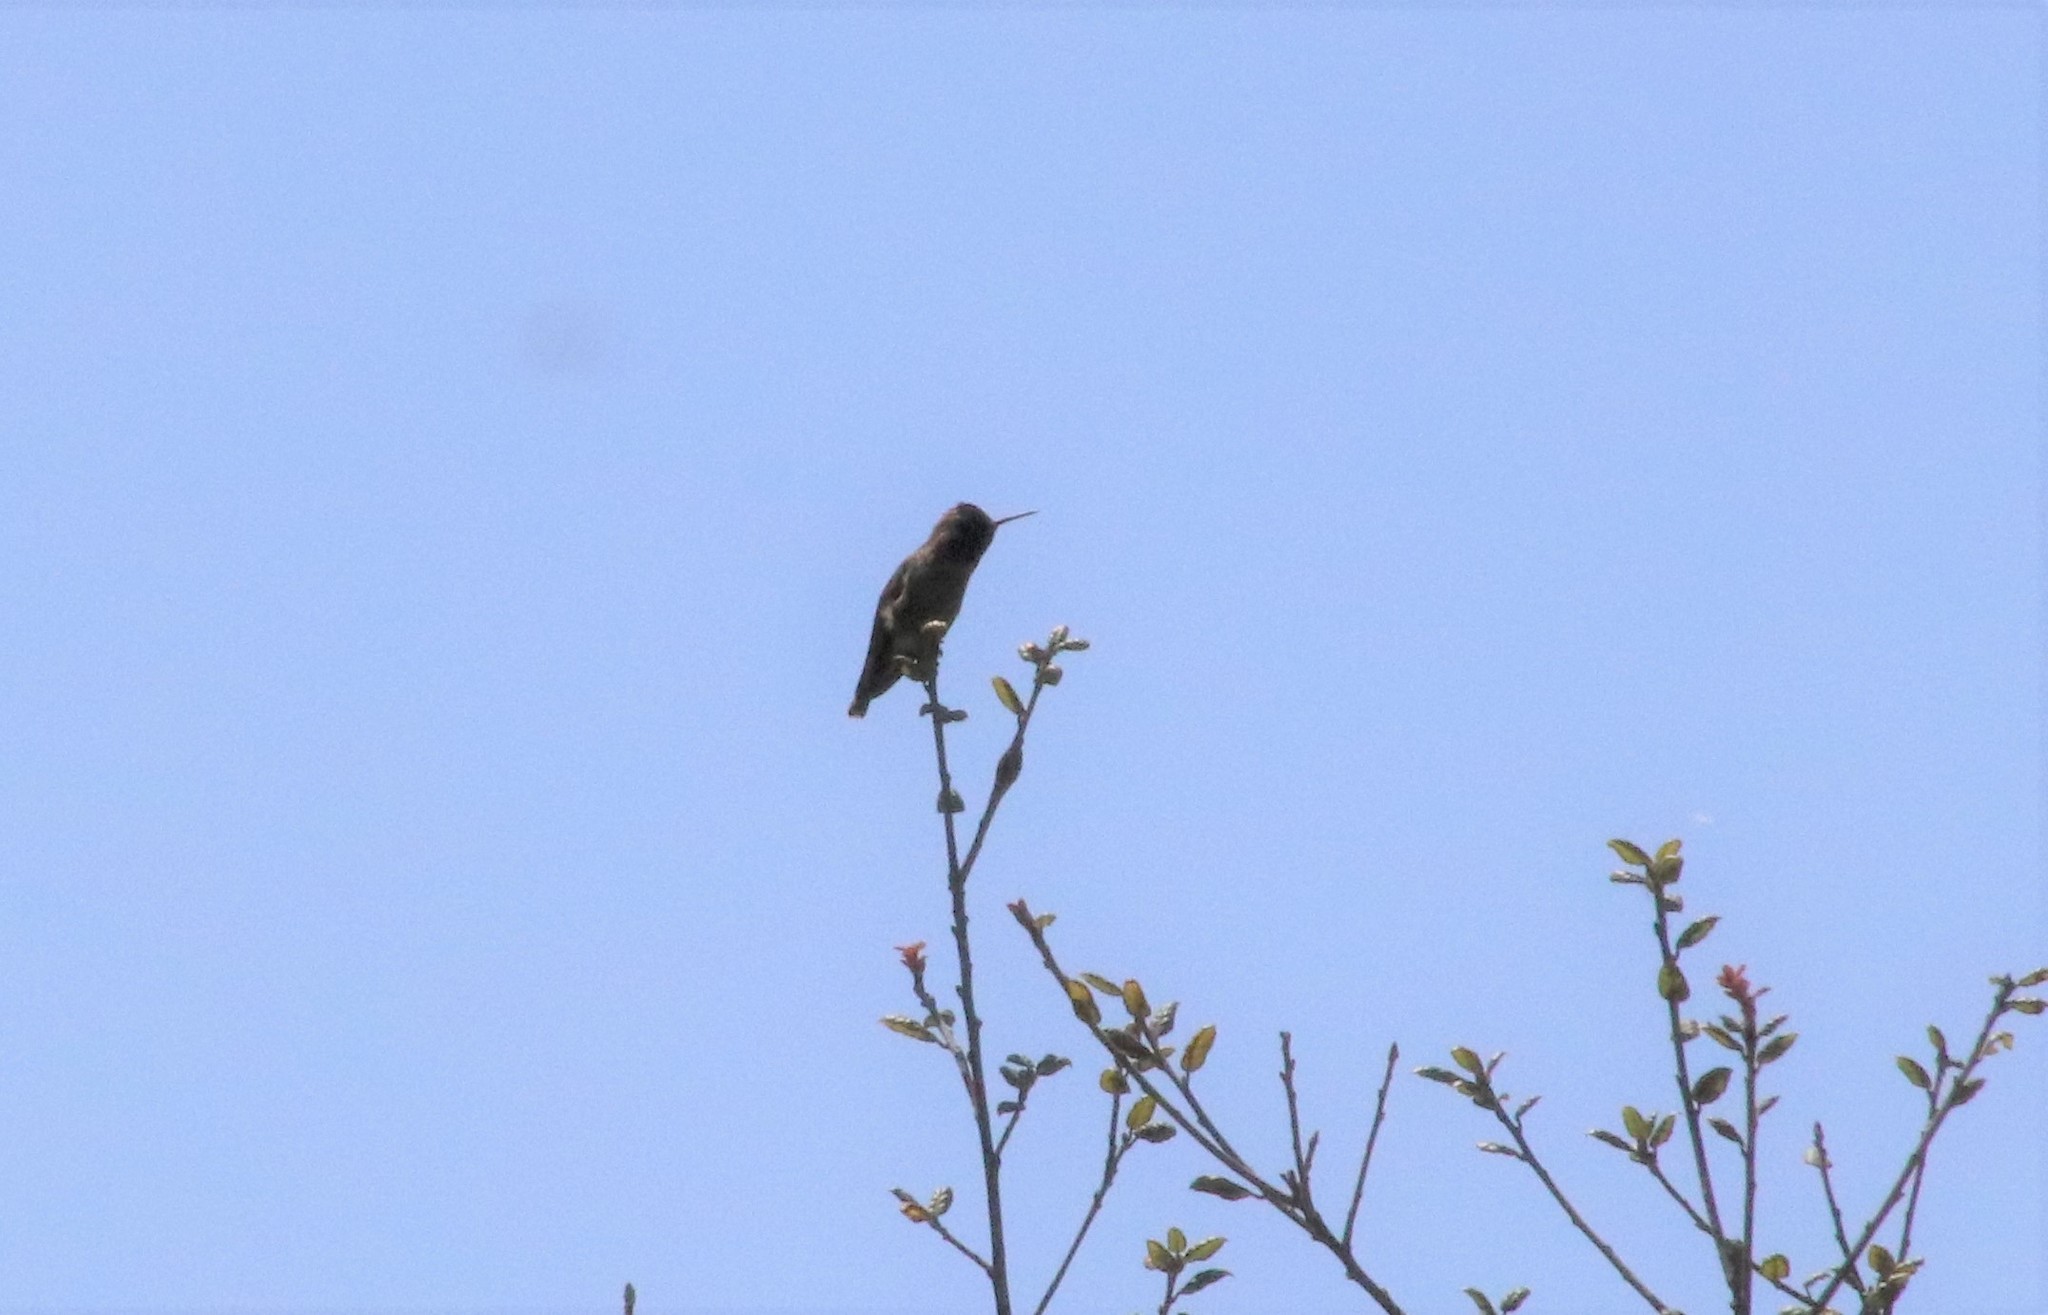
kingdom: Animalia
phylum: Chordata
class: Aves
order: Apodiformes
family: Trochilidae
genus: Calypte
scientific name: Calypte anna
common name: Anna's hummingbird
